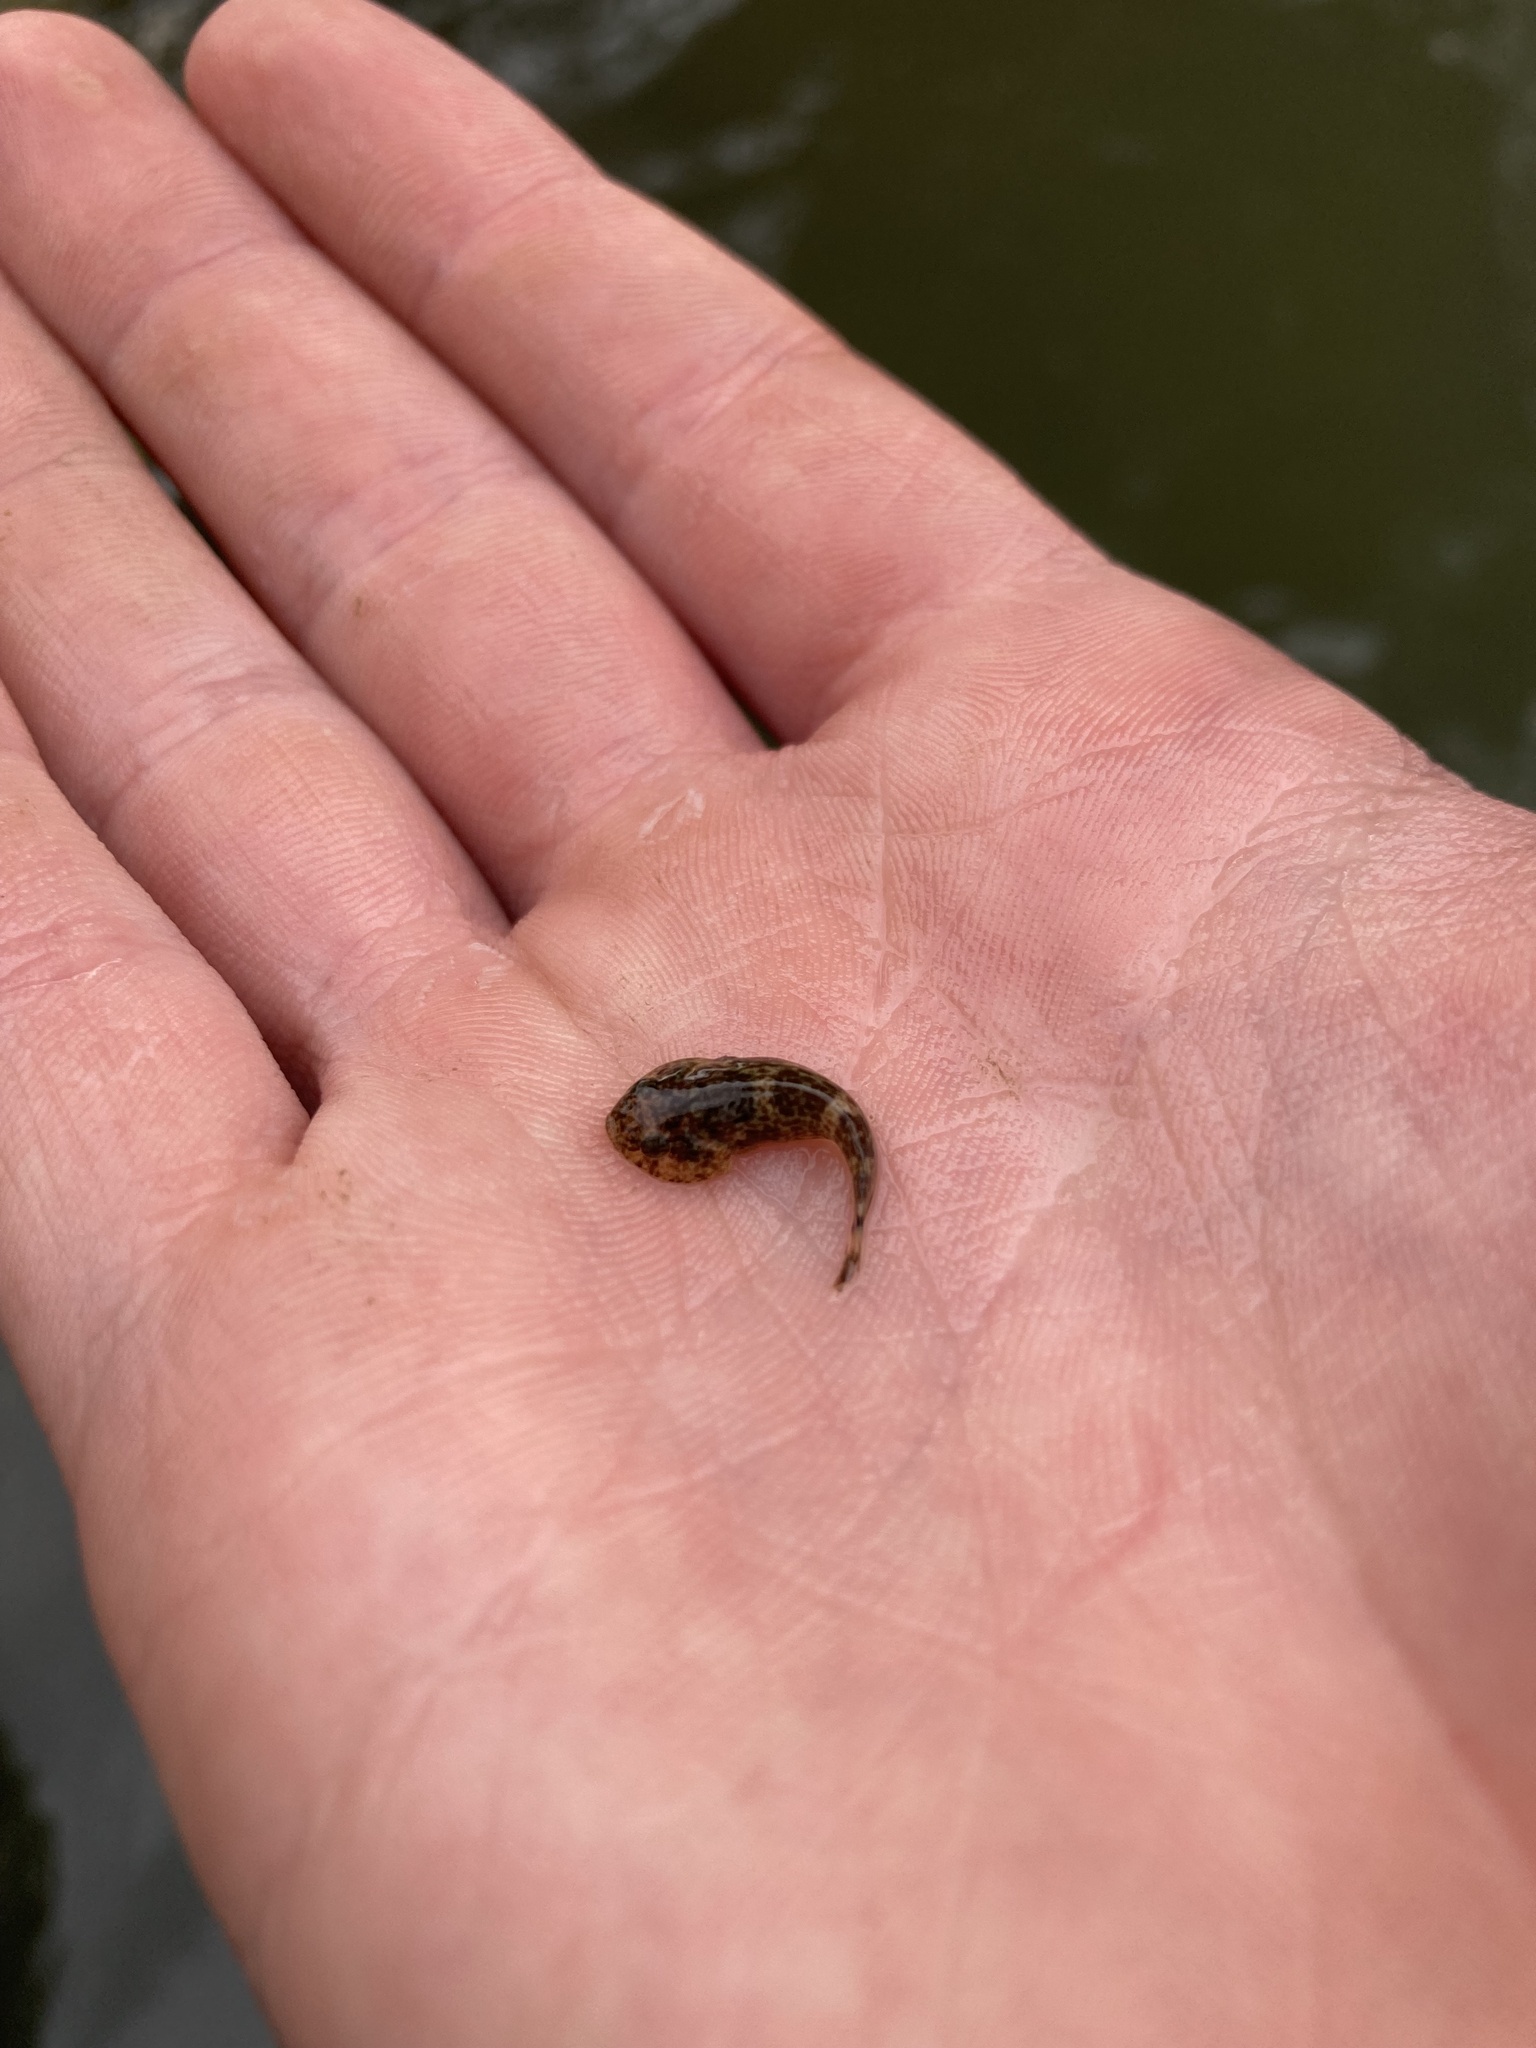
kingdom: Animalia
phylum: Chordata
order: Gobiesociformes
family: Gobiesocidae
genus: Gobiesox
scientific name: Gobiesox strumosus
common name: Skilletfish
